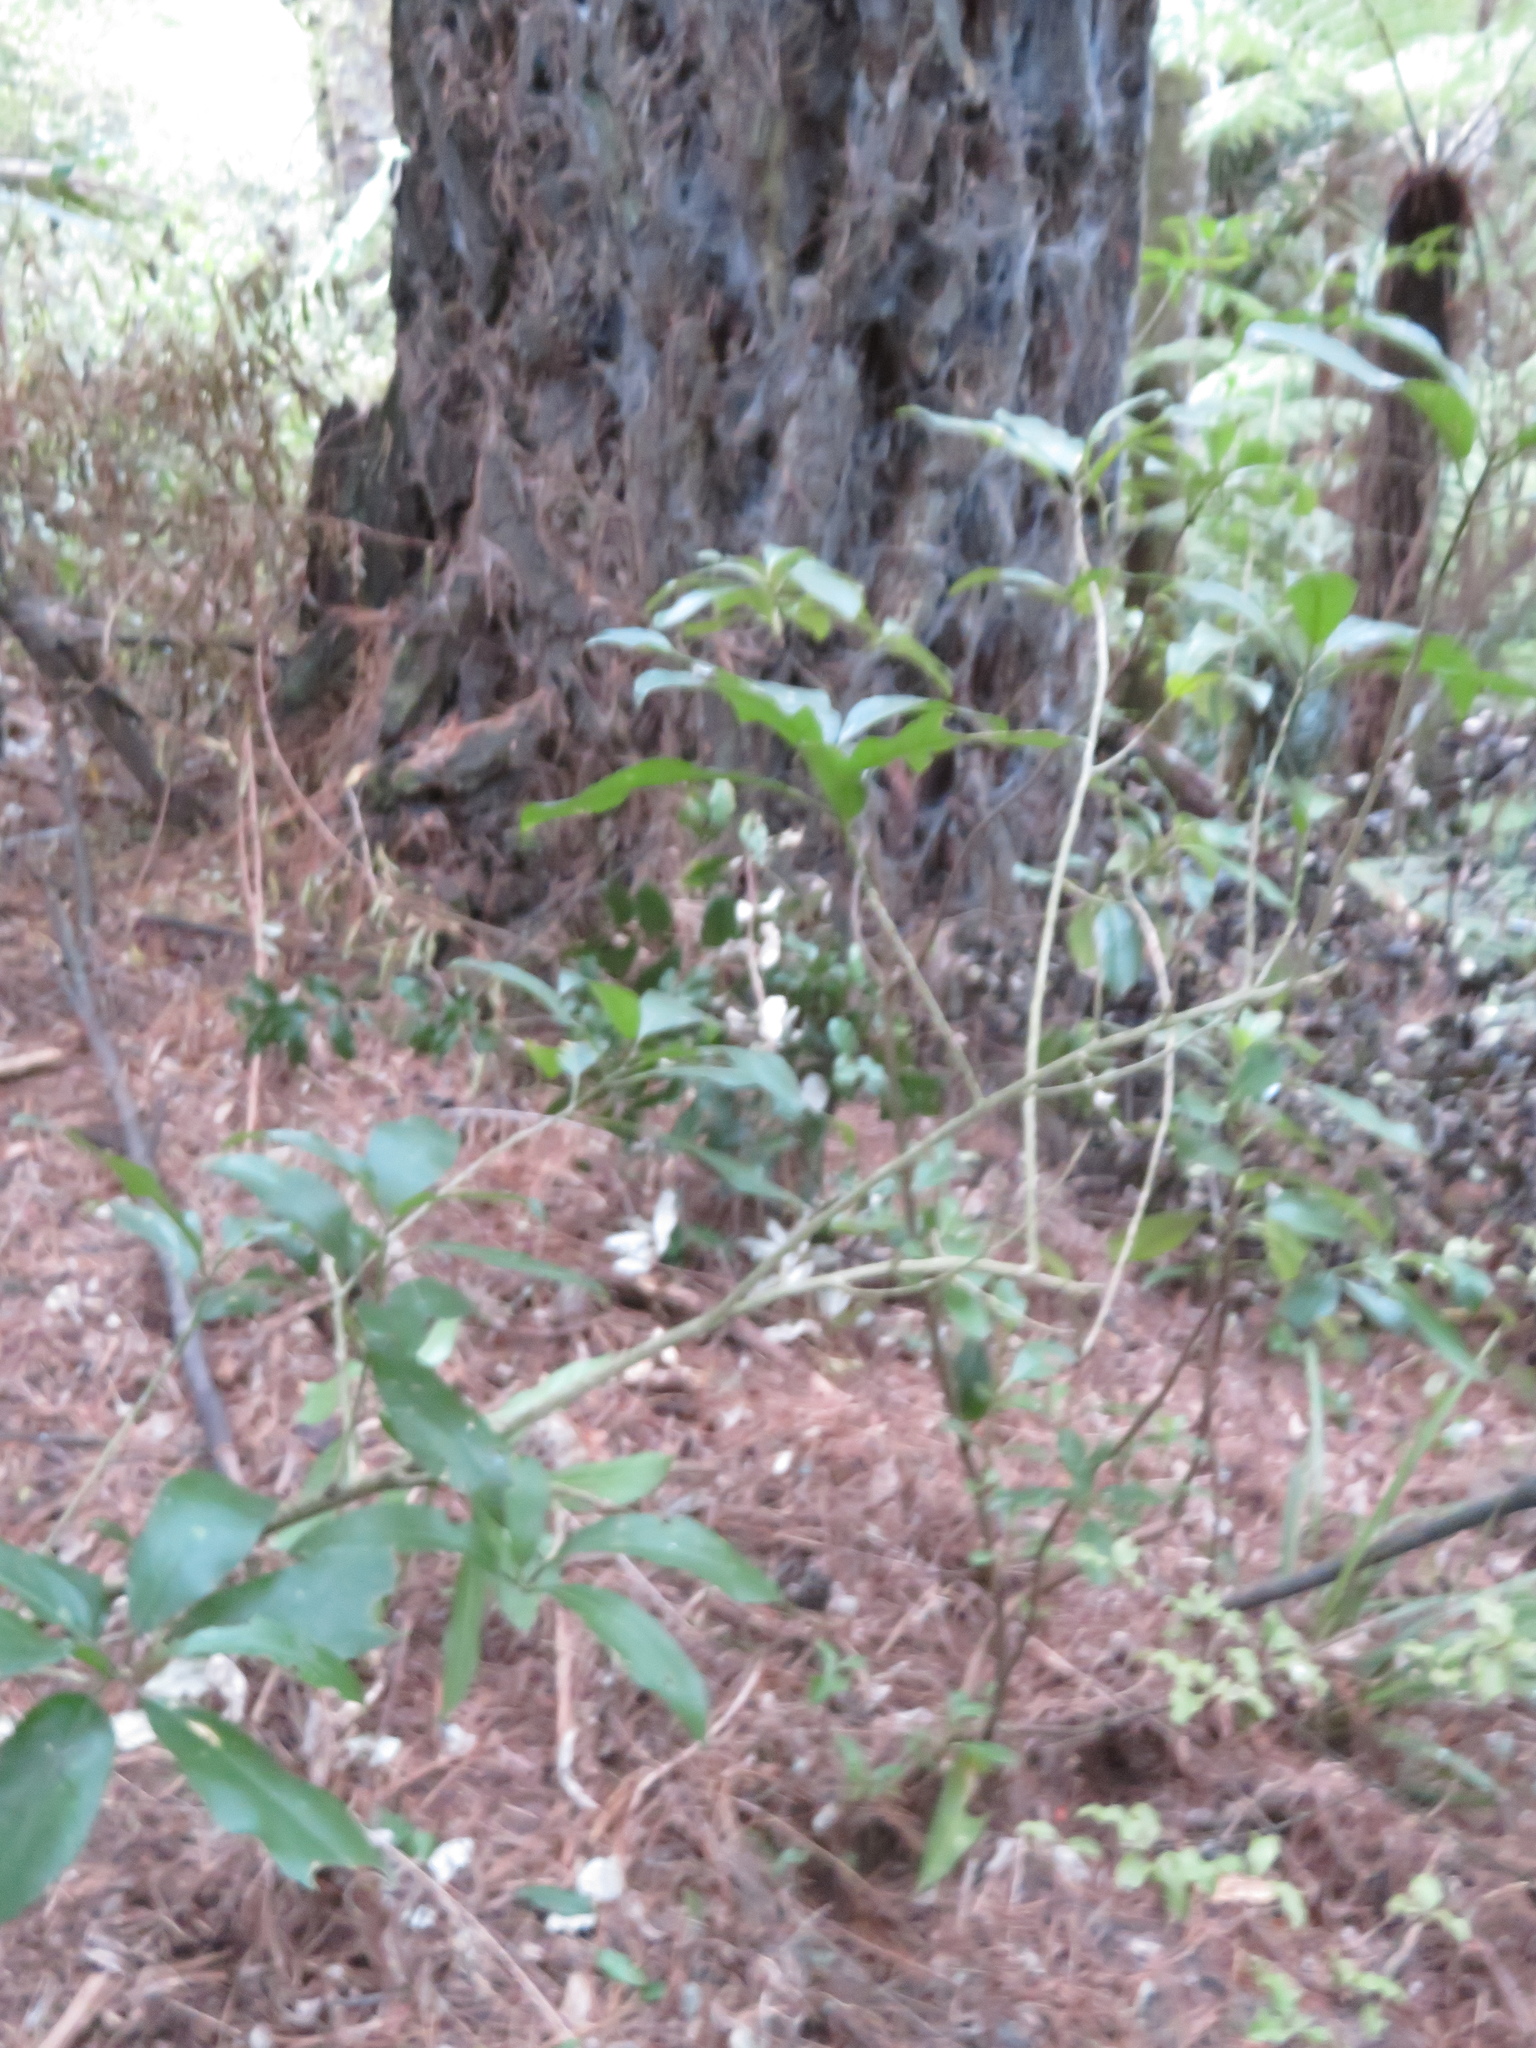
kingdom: Plantae
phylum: Tracheophyta
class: Magnoliopsida
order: Rosales
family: Elaeagnaceae
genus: Elaeagnus
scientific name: Elaeagnus reflexa
